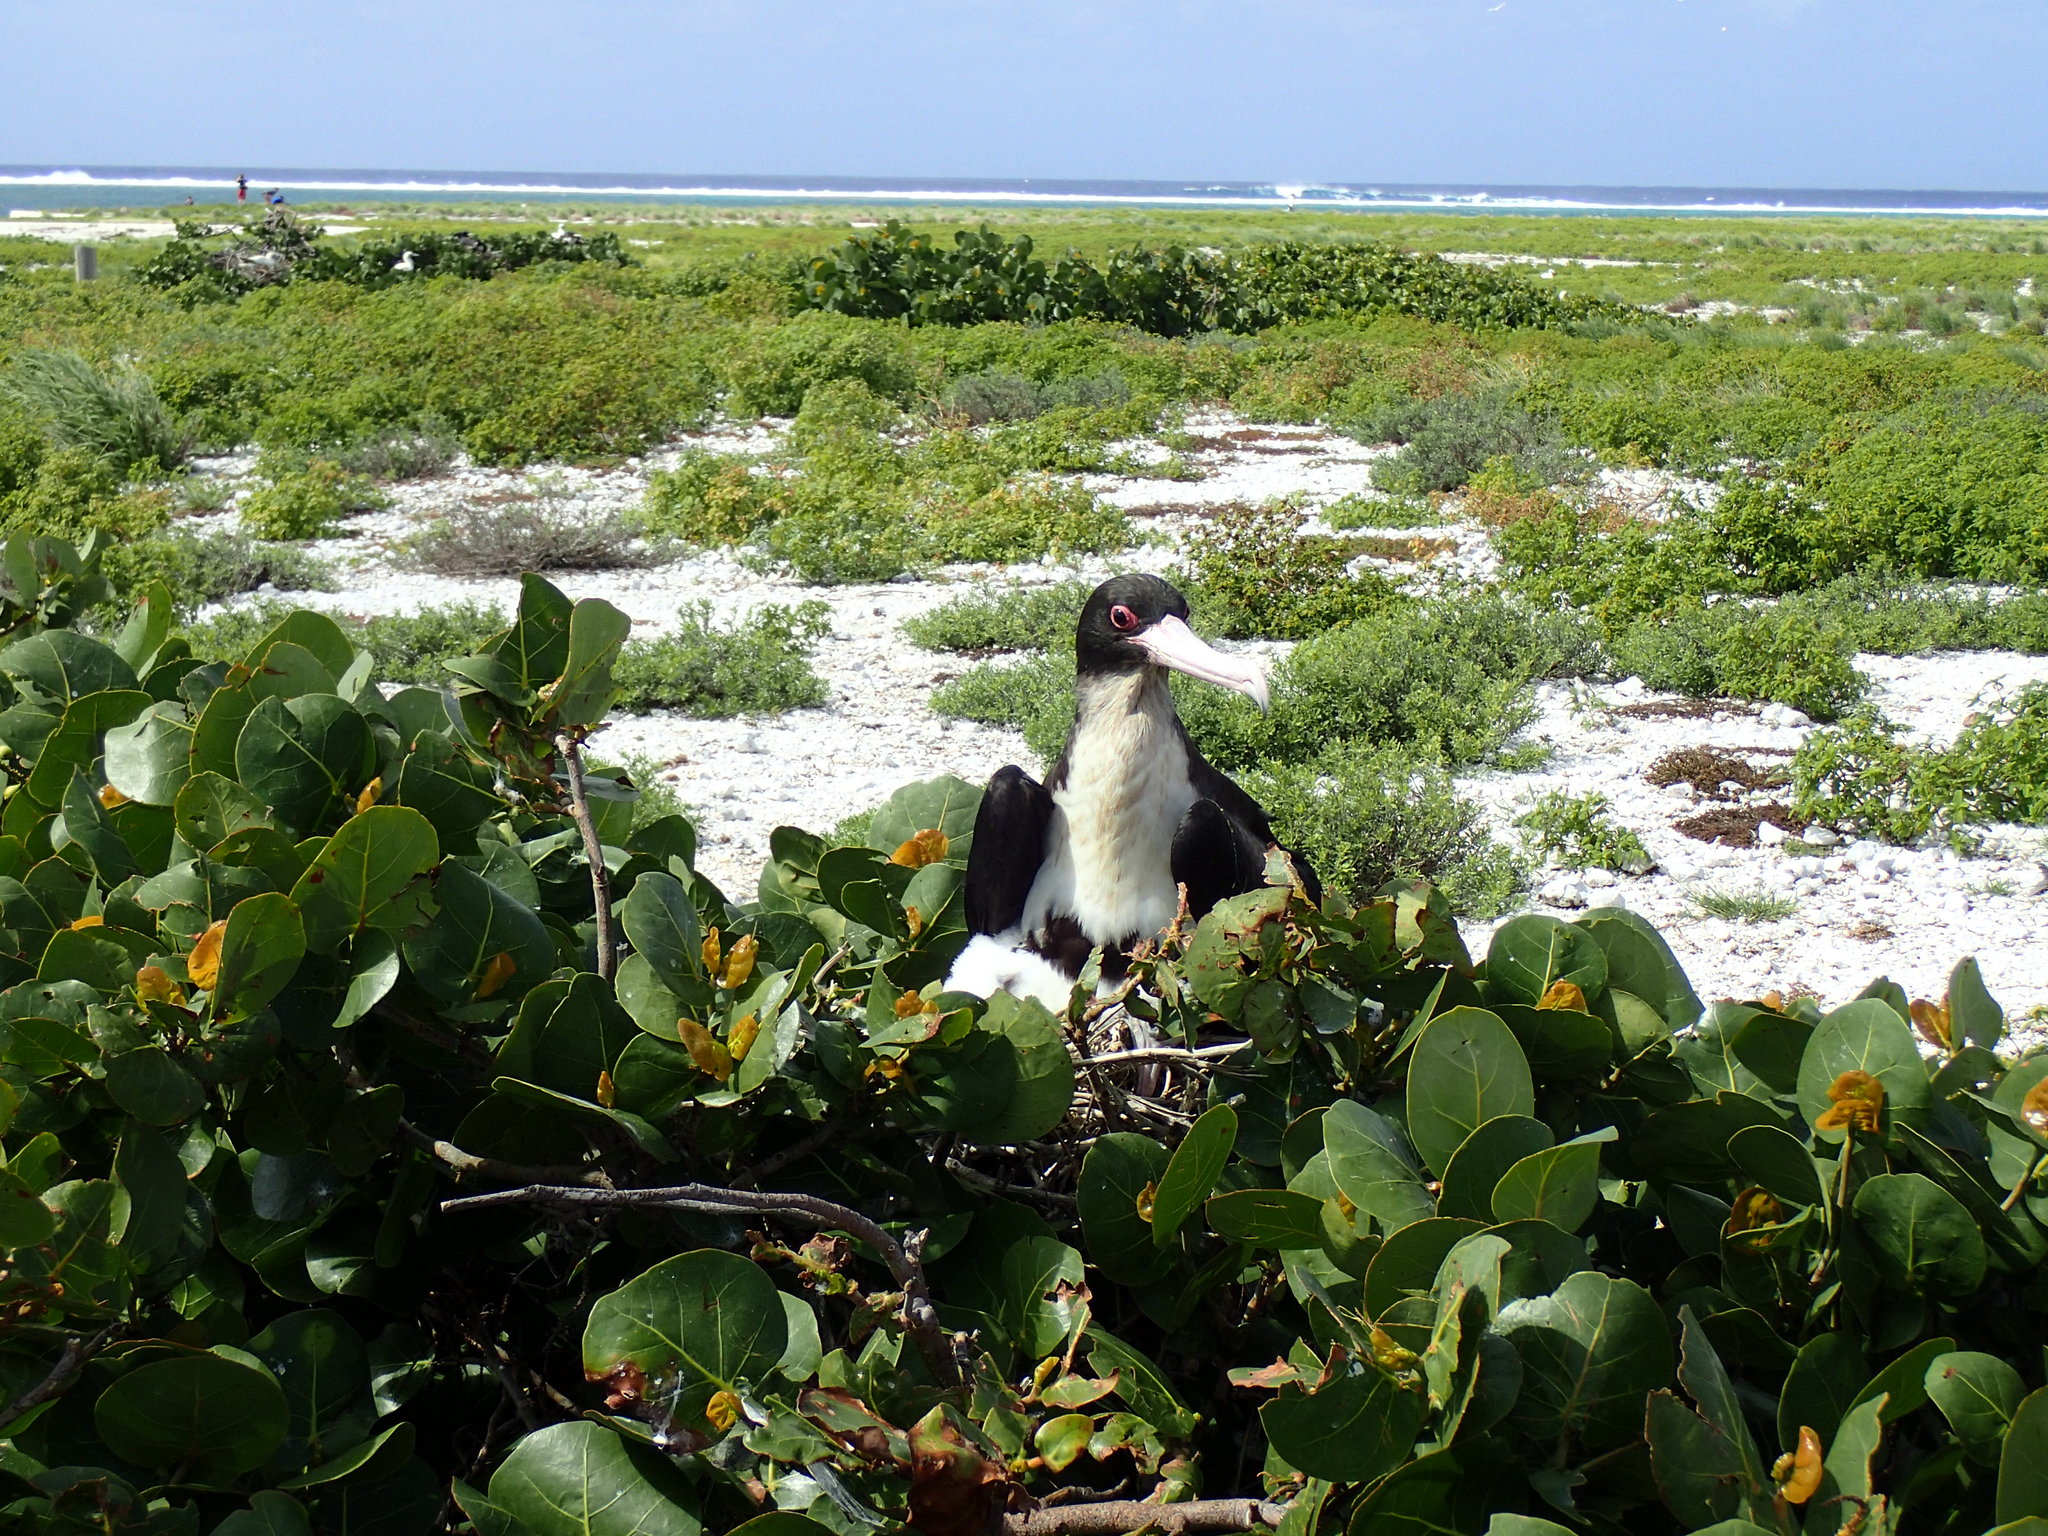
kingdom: Animalia
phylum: Chordata
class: Aves
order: Suliformes
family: Fregatidae
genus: Fregata
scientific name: Fregata minor
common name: Great frigatebird
